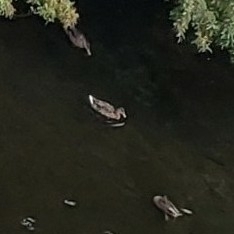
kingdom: Animalia
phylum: Chordata
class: Aves
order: Anseriformes
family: Anatidae
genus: Anas
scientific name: Anas platyrhynchos
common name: Mallard
